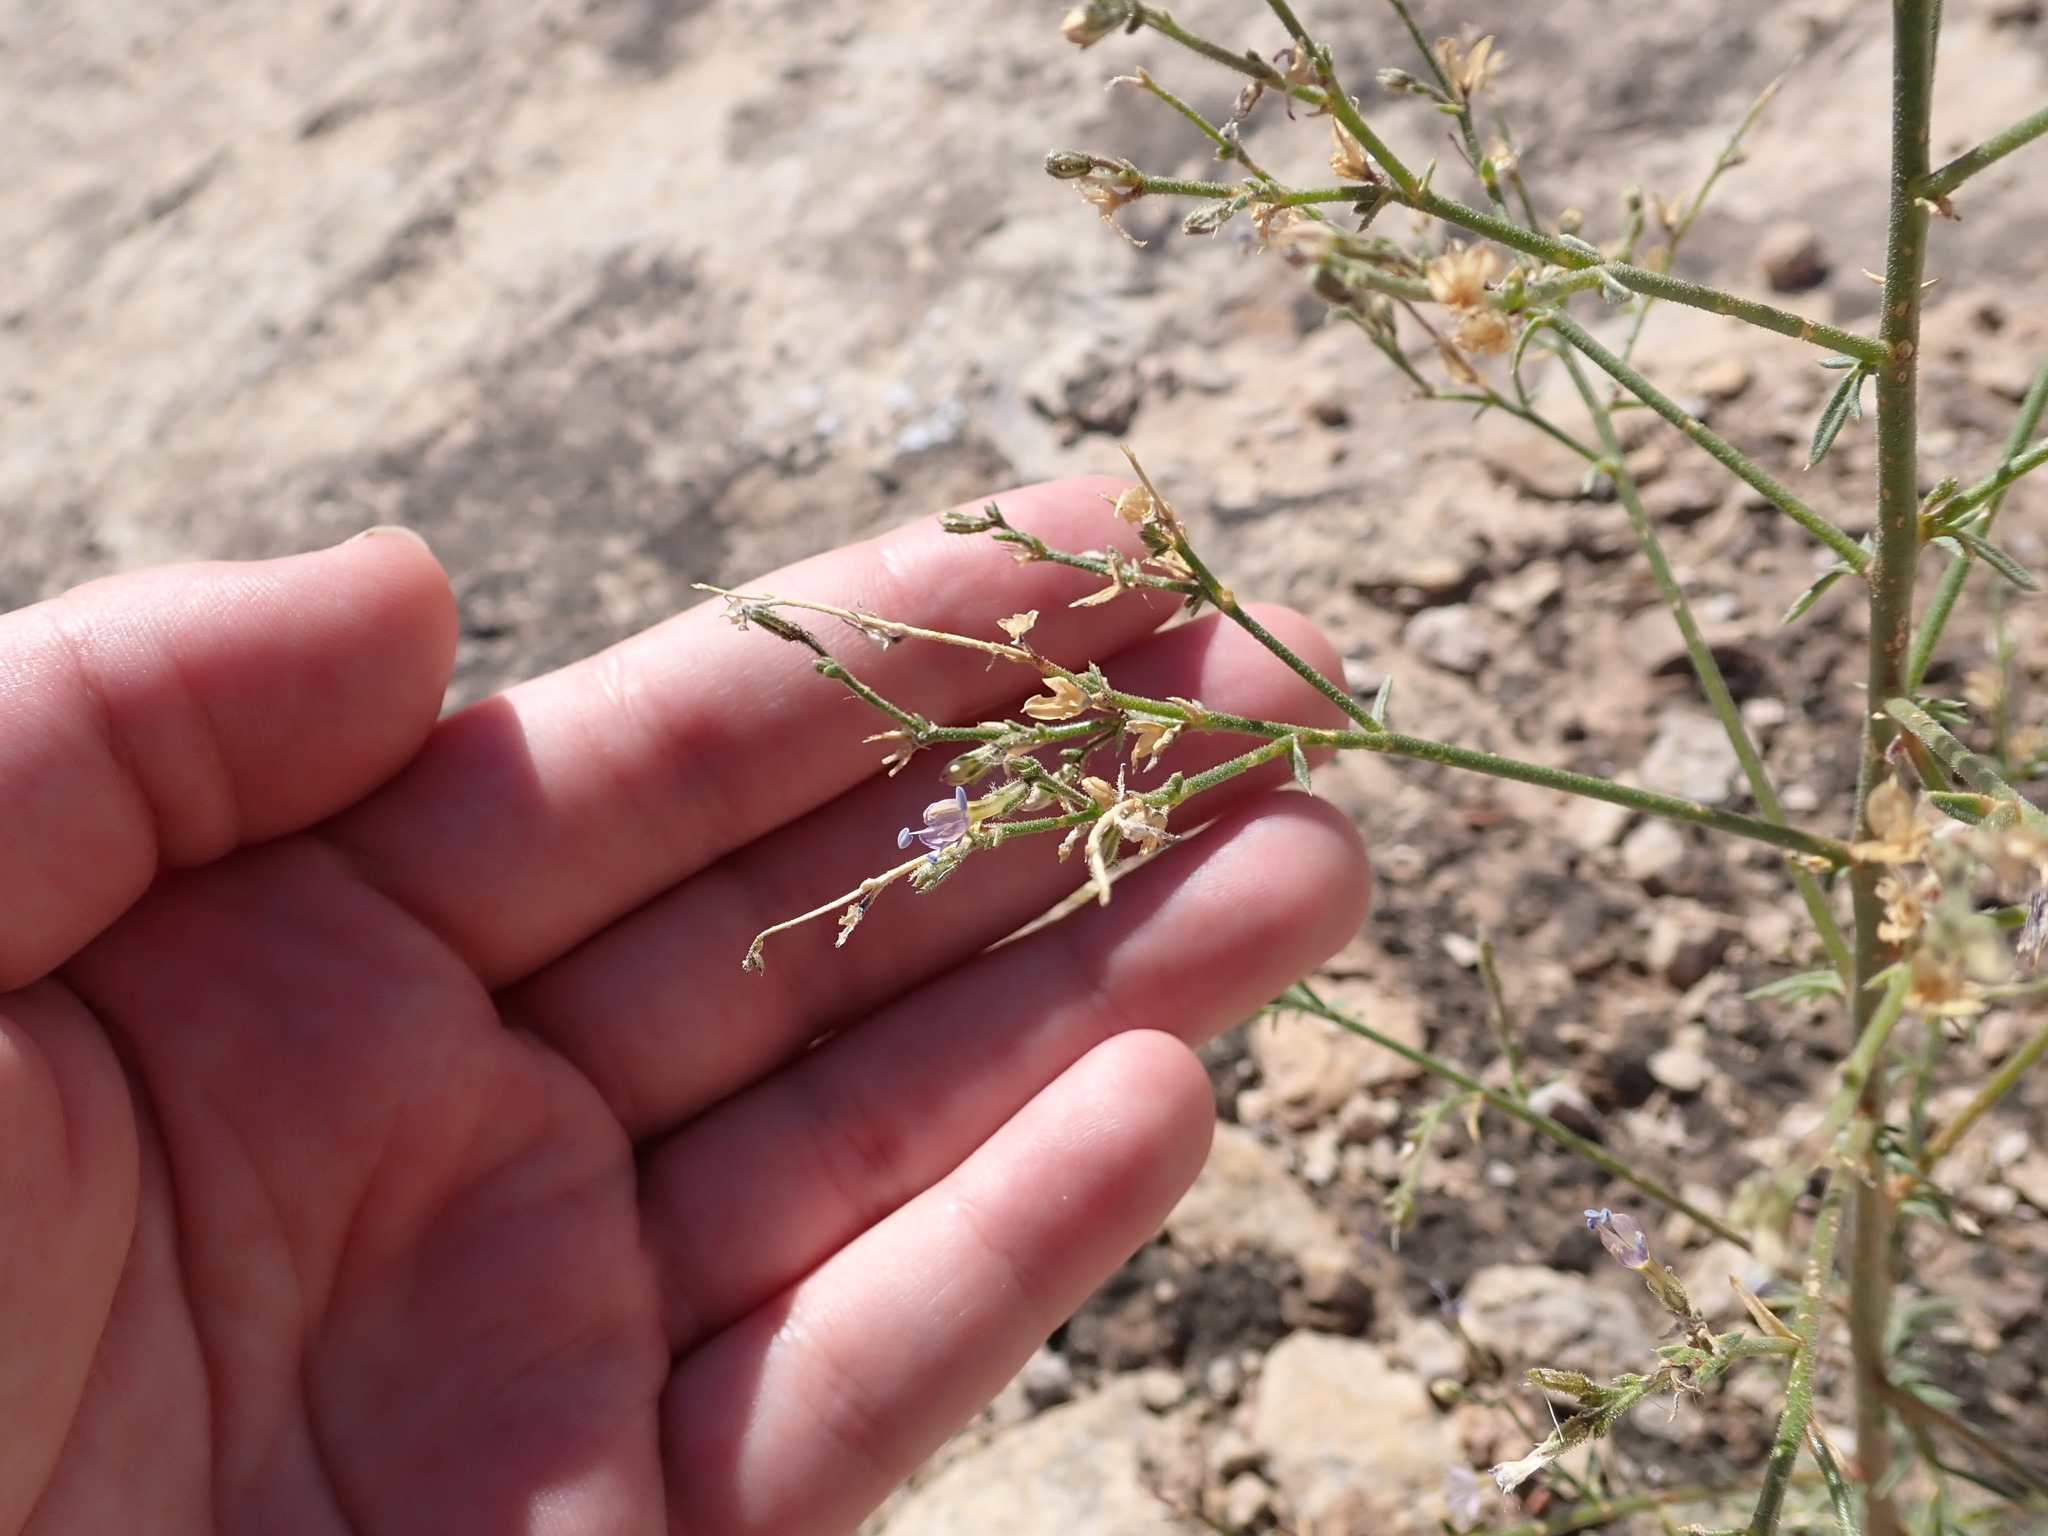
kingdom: Plantae
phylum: Tracheophyta
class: Magnoliopsida
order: Ericales
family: Polemoniaceae
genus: Aliciella
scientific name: Aliciella pinnatifida
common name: Sticky gilia
